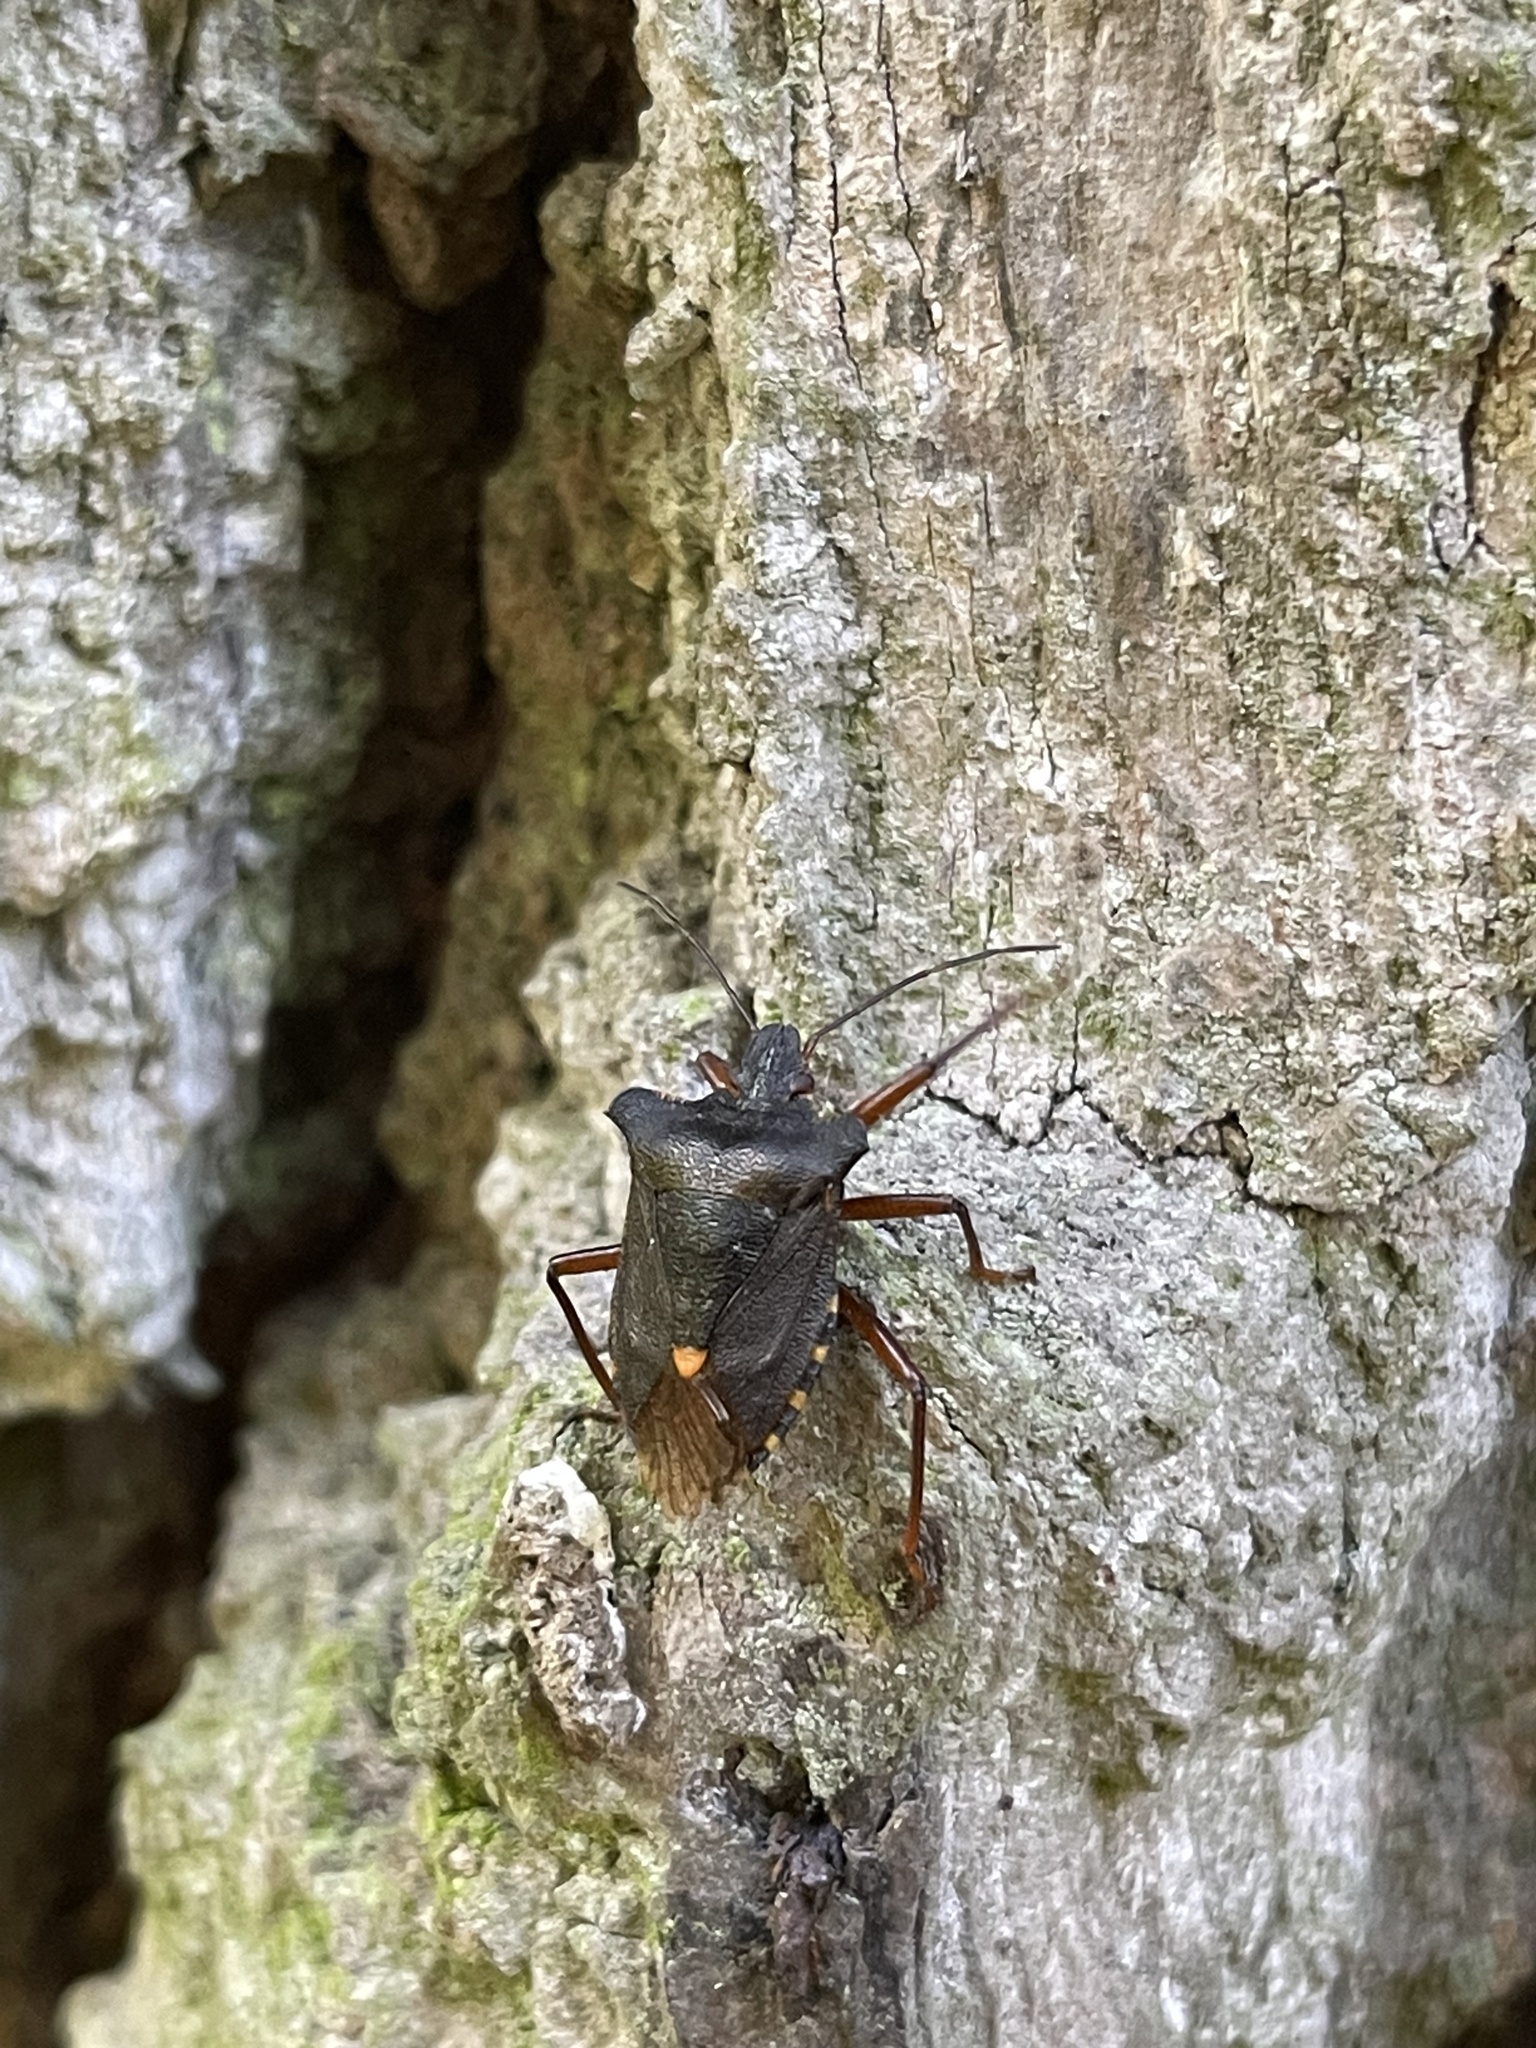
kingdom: Animalia
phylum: Arthropoda
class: Insecta
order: Hemiptera
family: Pentatomidae
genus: Pentatoma
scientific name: Pentatoma rufipes
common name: Forest bug
